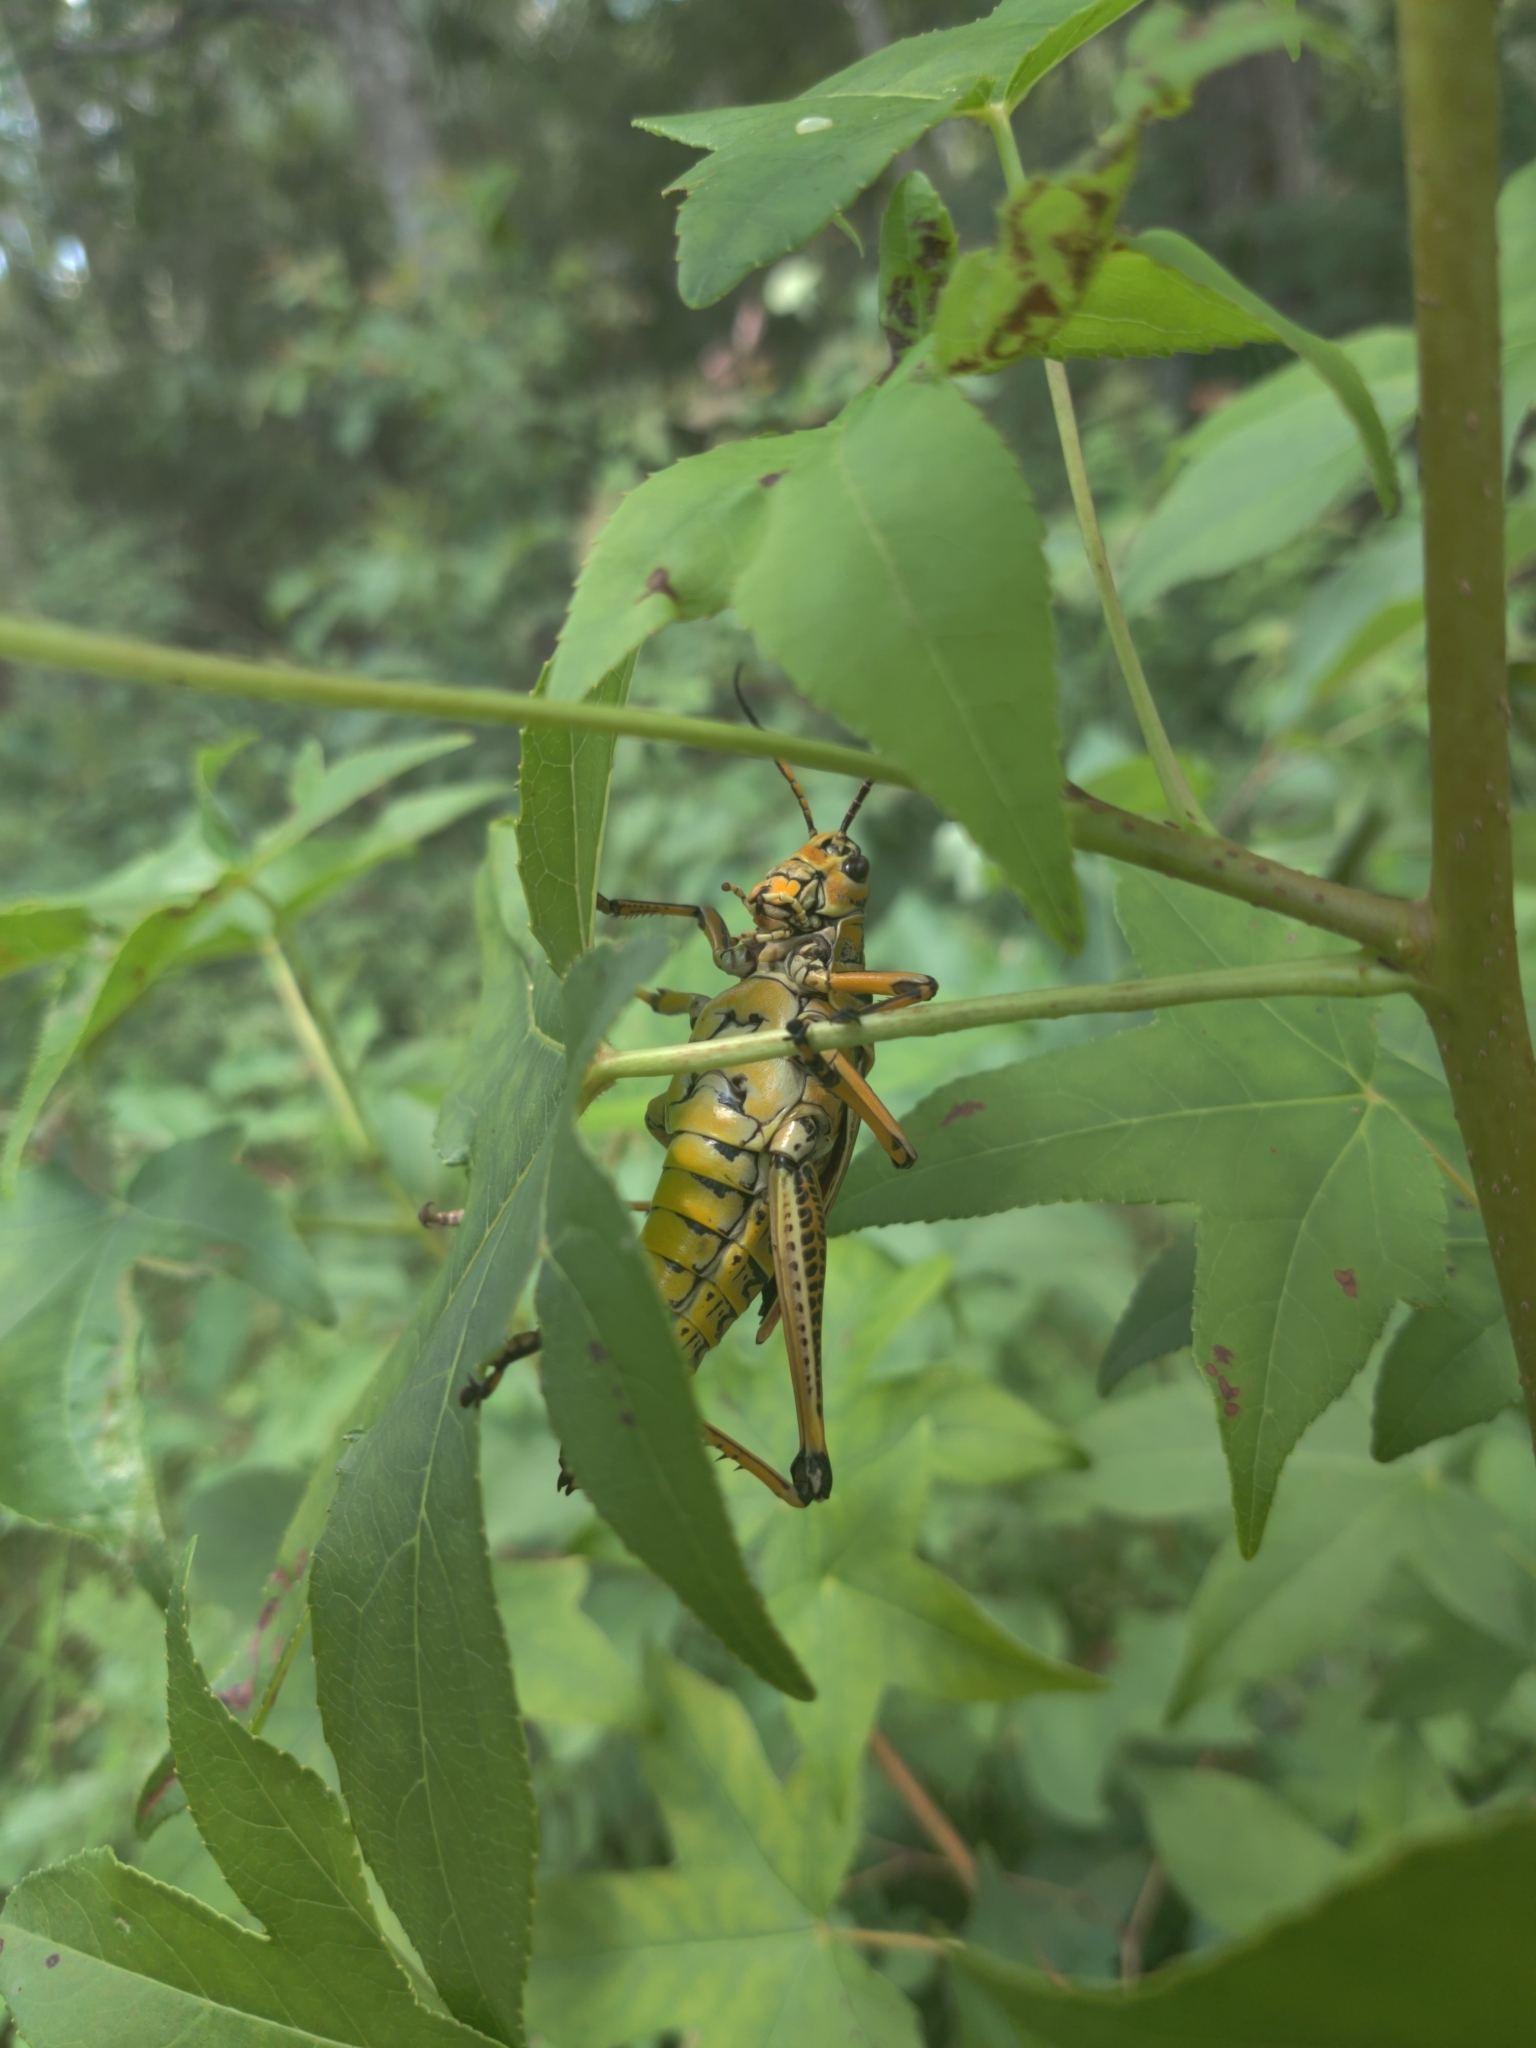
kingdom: Animalia
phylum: Arthropoda
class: Insecta
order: Orthoptera
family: Romaleidae
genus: Romalea
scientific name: Romalea microptera
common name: Eastern lubber grasshopper
